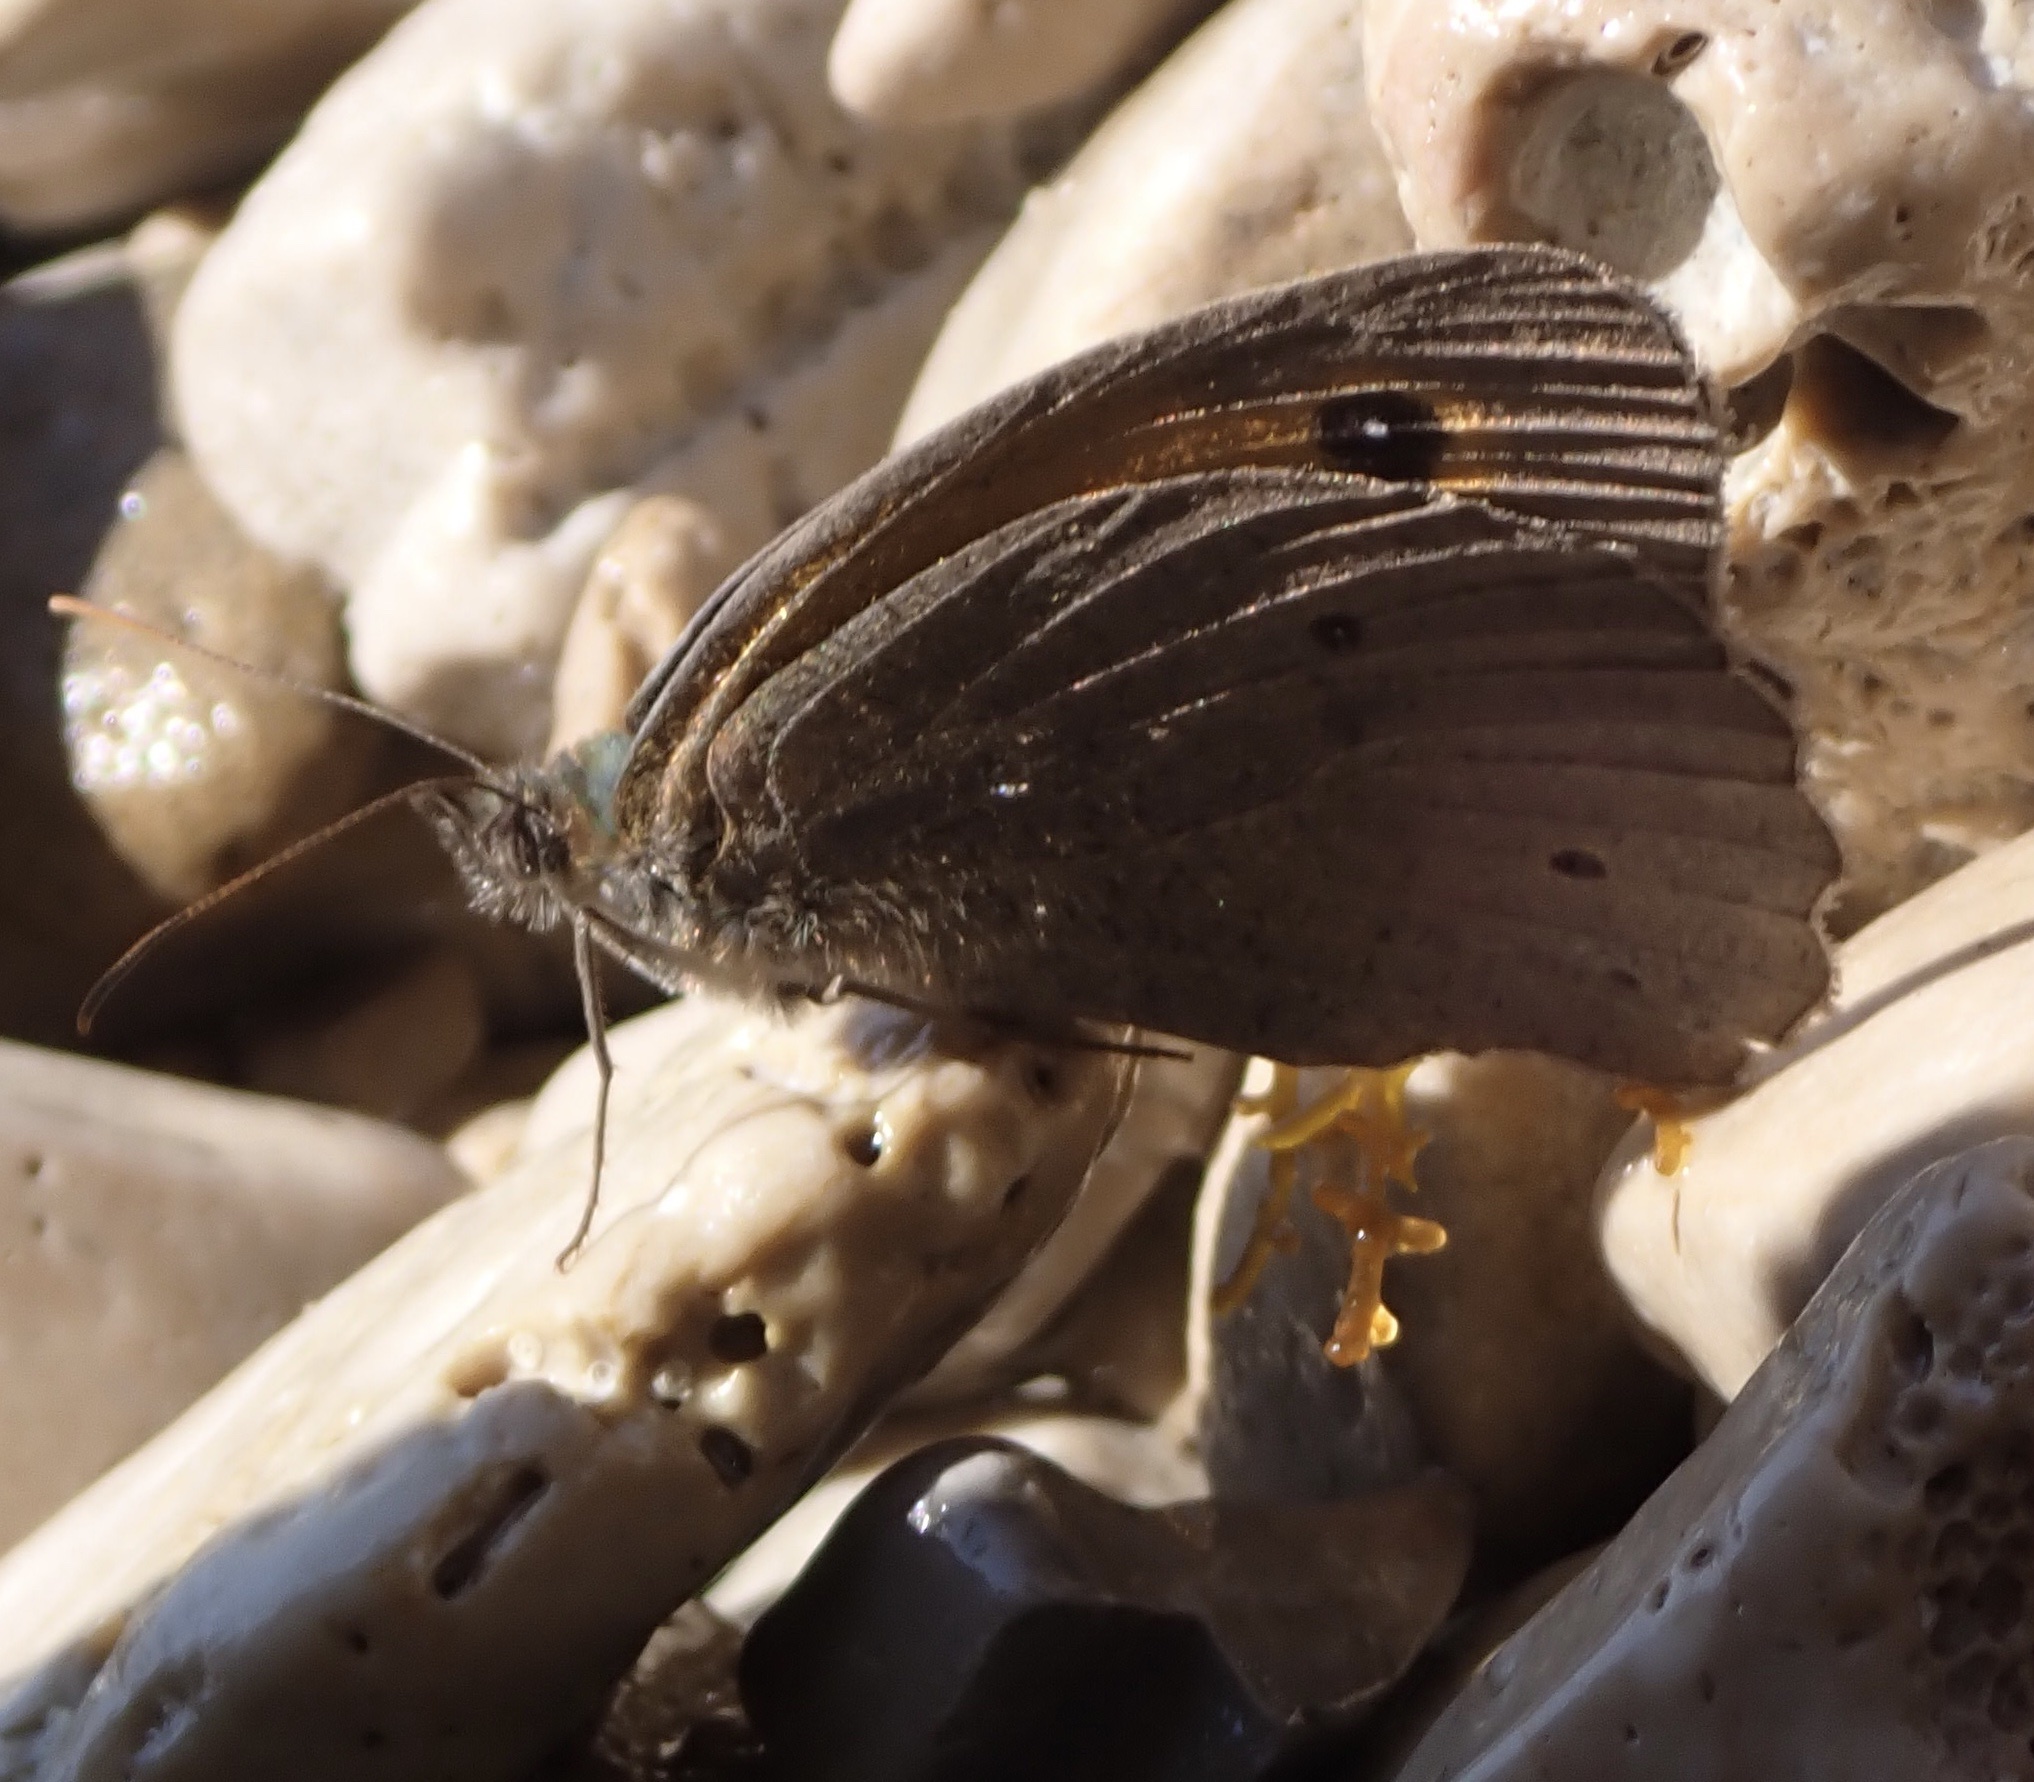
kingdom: Animalia
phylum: Arthropoda
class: Insecta
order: Lepidoptera
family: Nymphalidae
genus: Maniola
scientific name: Maniola jurtina
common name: Meadow brown
